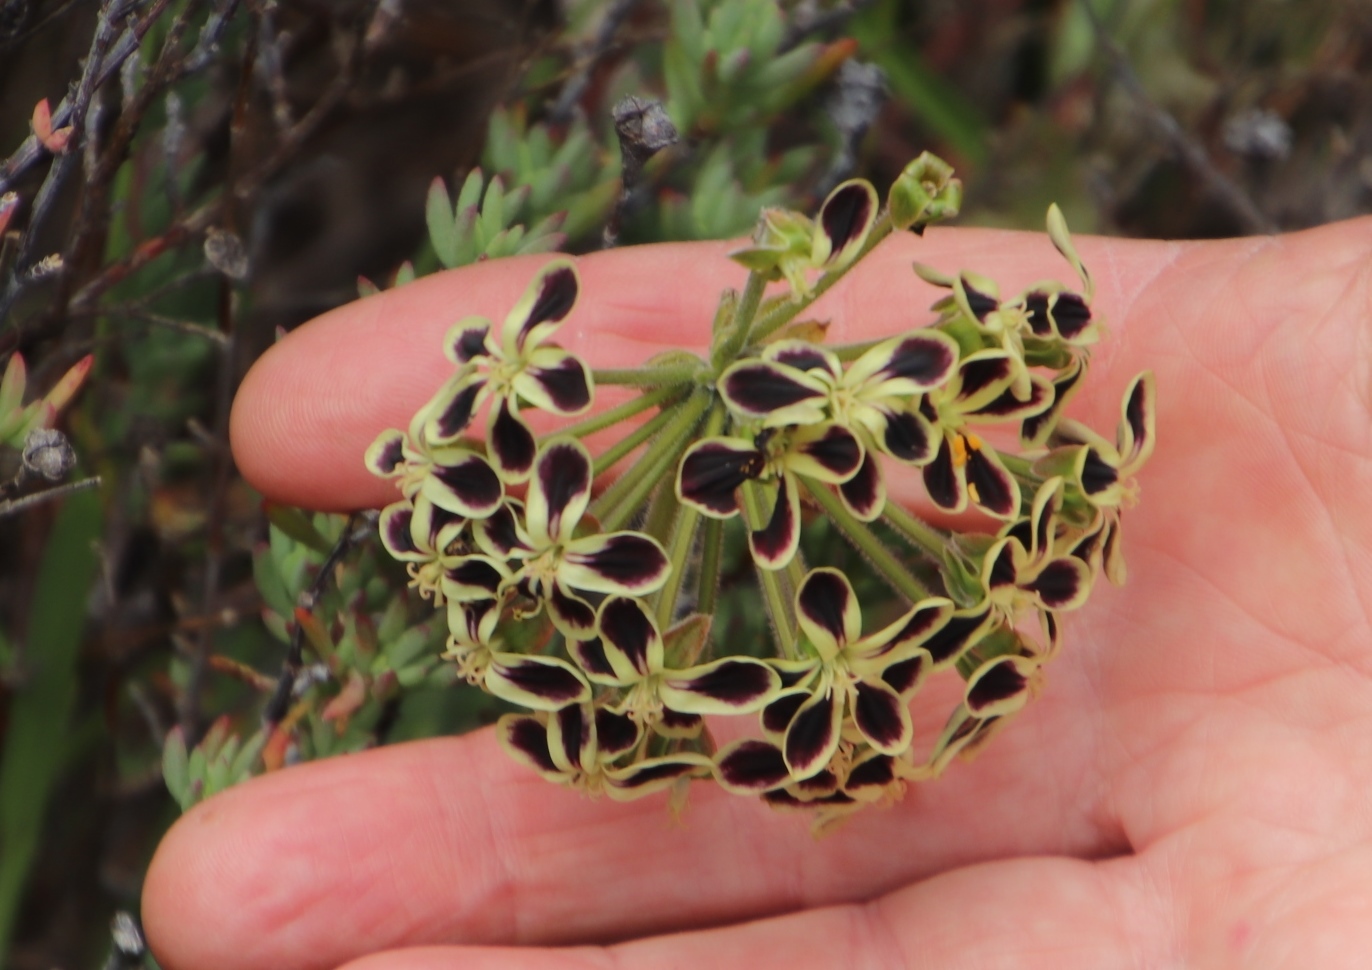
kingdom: Plantae
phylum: Tracheophyta
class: Magnoliopsida
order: Geraniales
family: Geraniaceae
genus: Pelargonium
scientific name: Pelargonium lobatum
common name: Vine-leaf pelargonium
